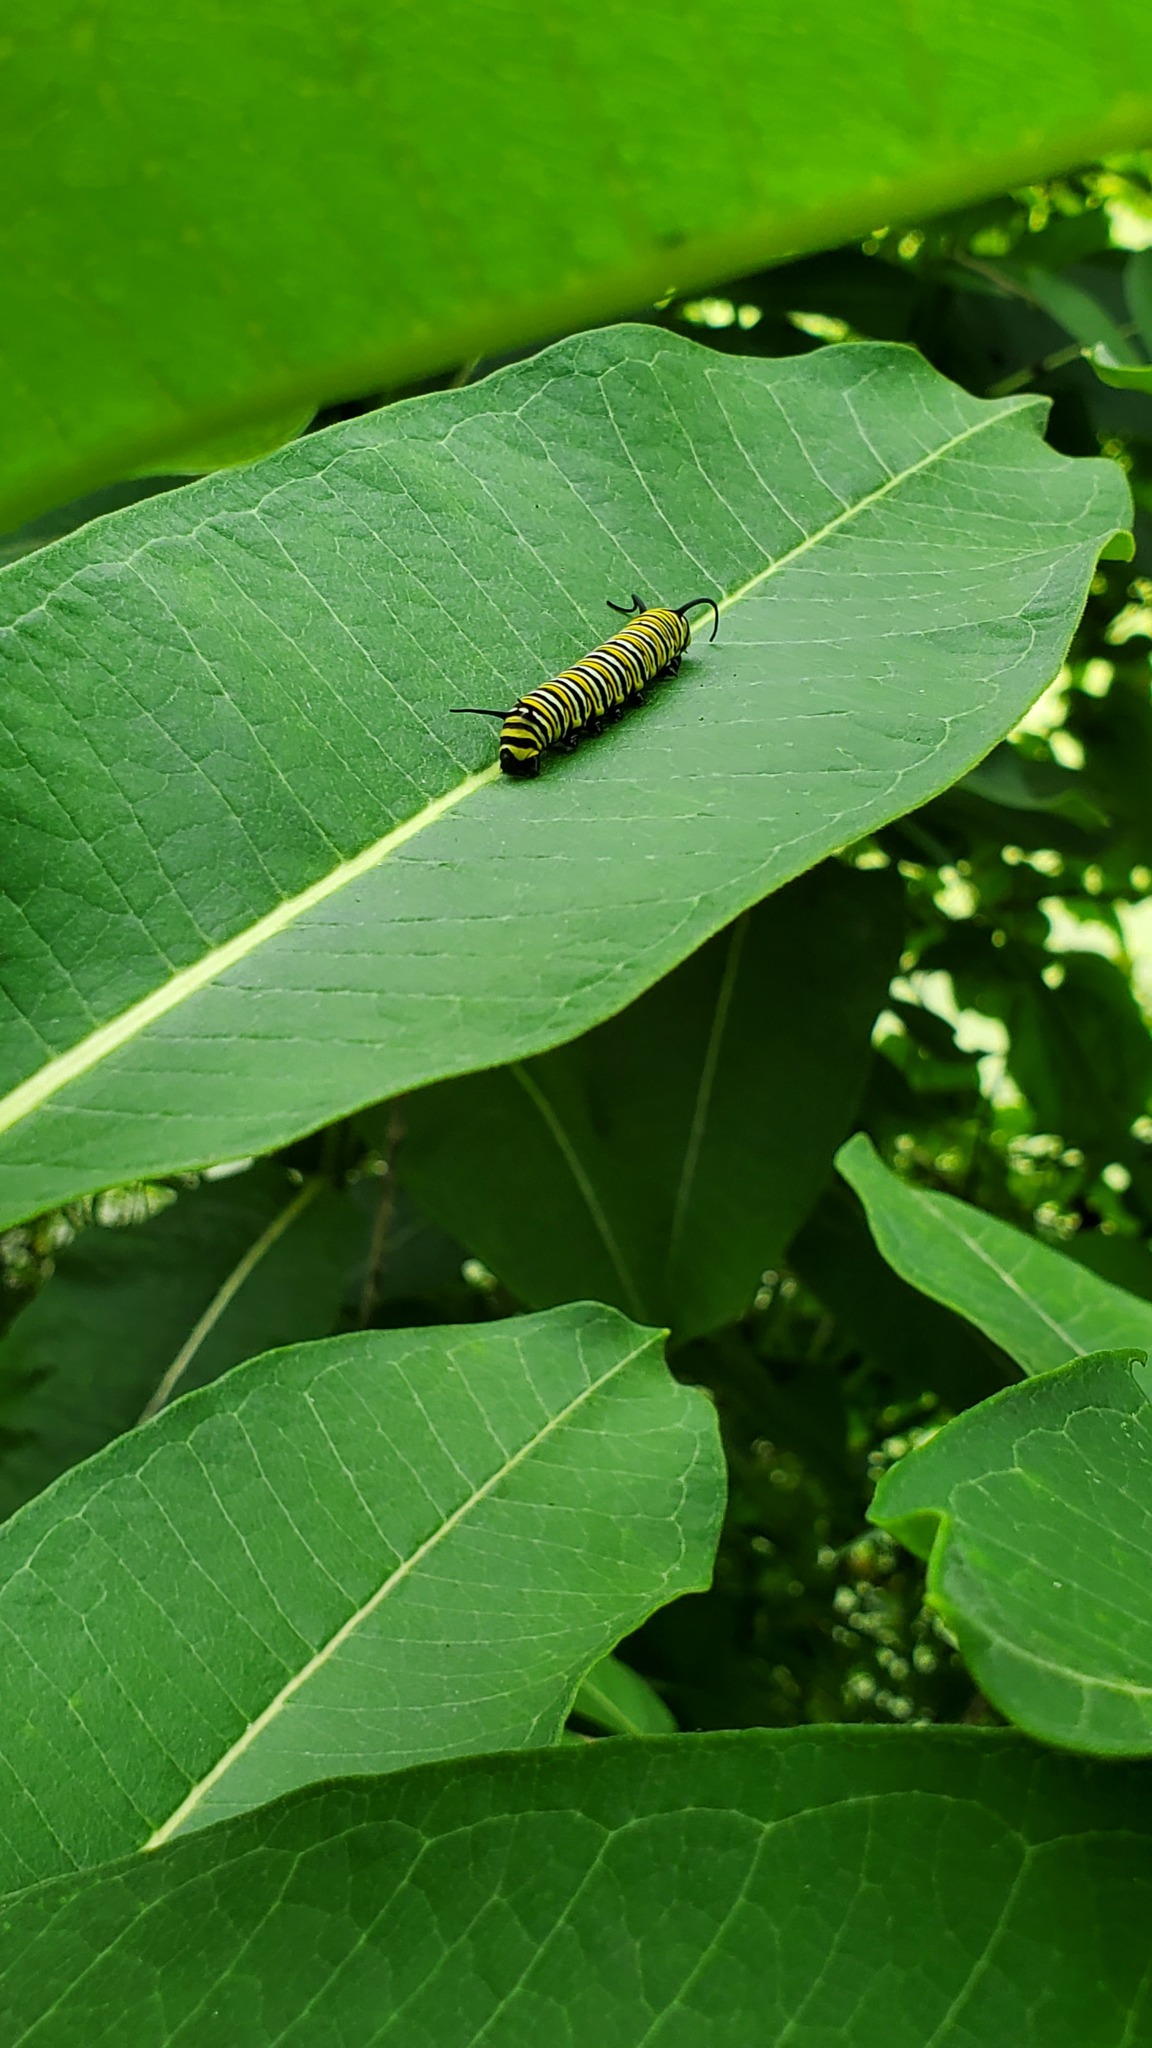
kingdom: Animalia
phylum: Arthropoda
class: Insecta
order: Lepidoptera
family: Nymphalidae
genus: Danaus
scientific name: Danaus plexippus
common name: Monarch
